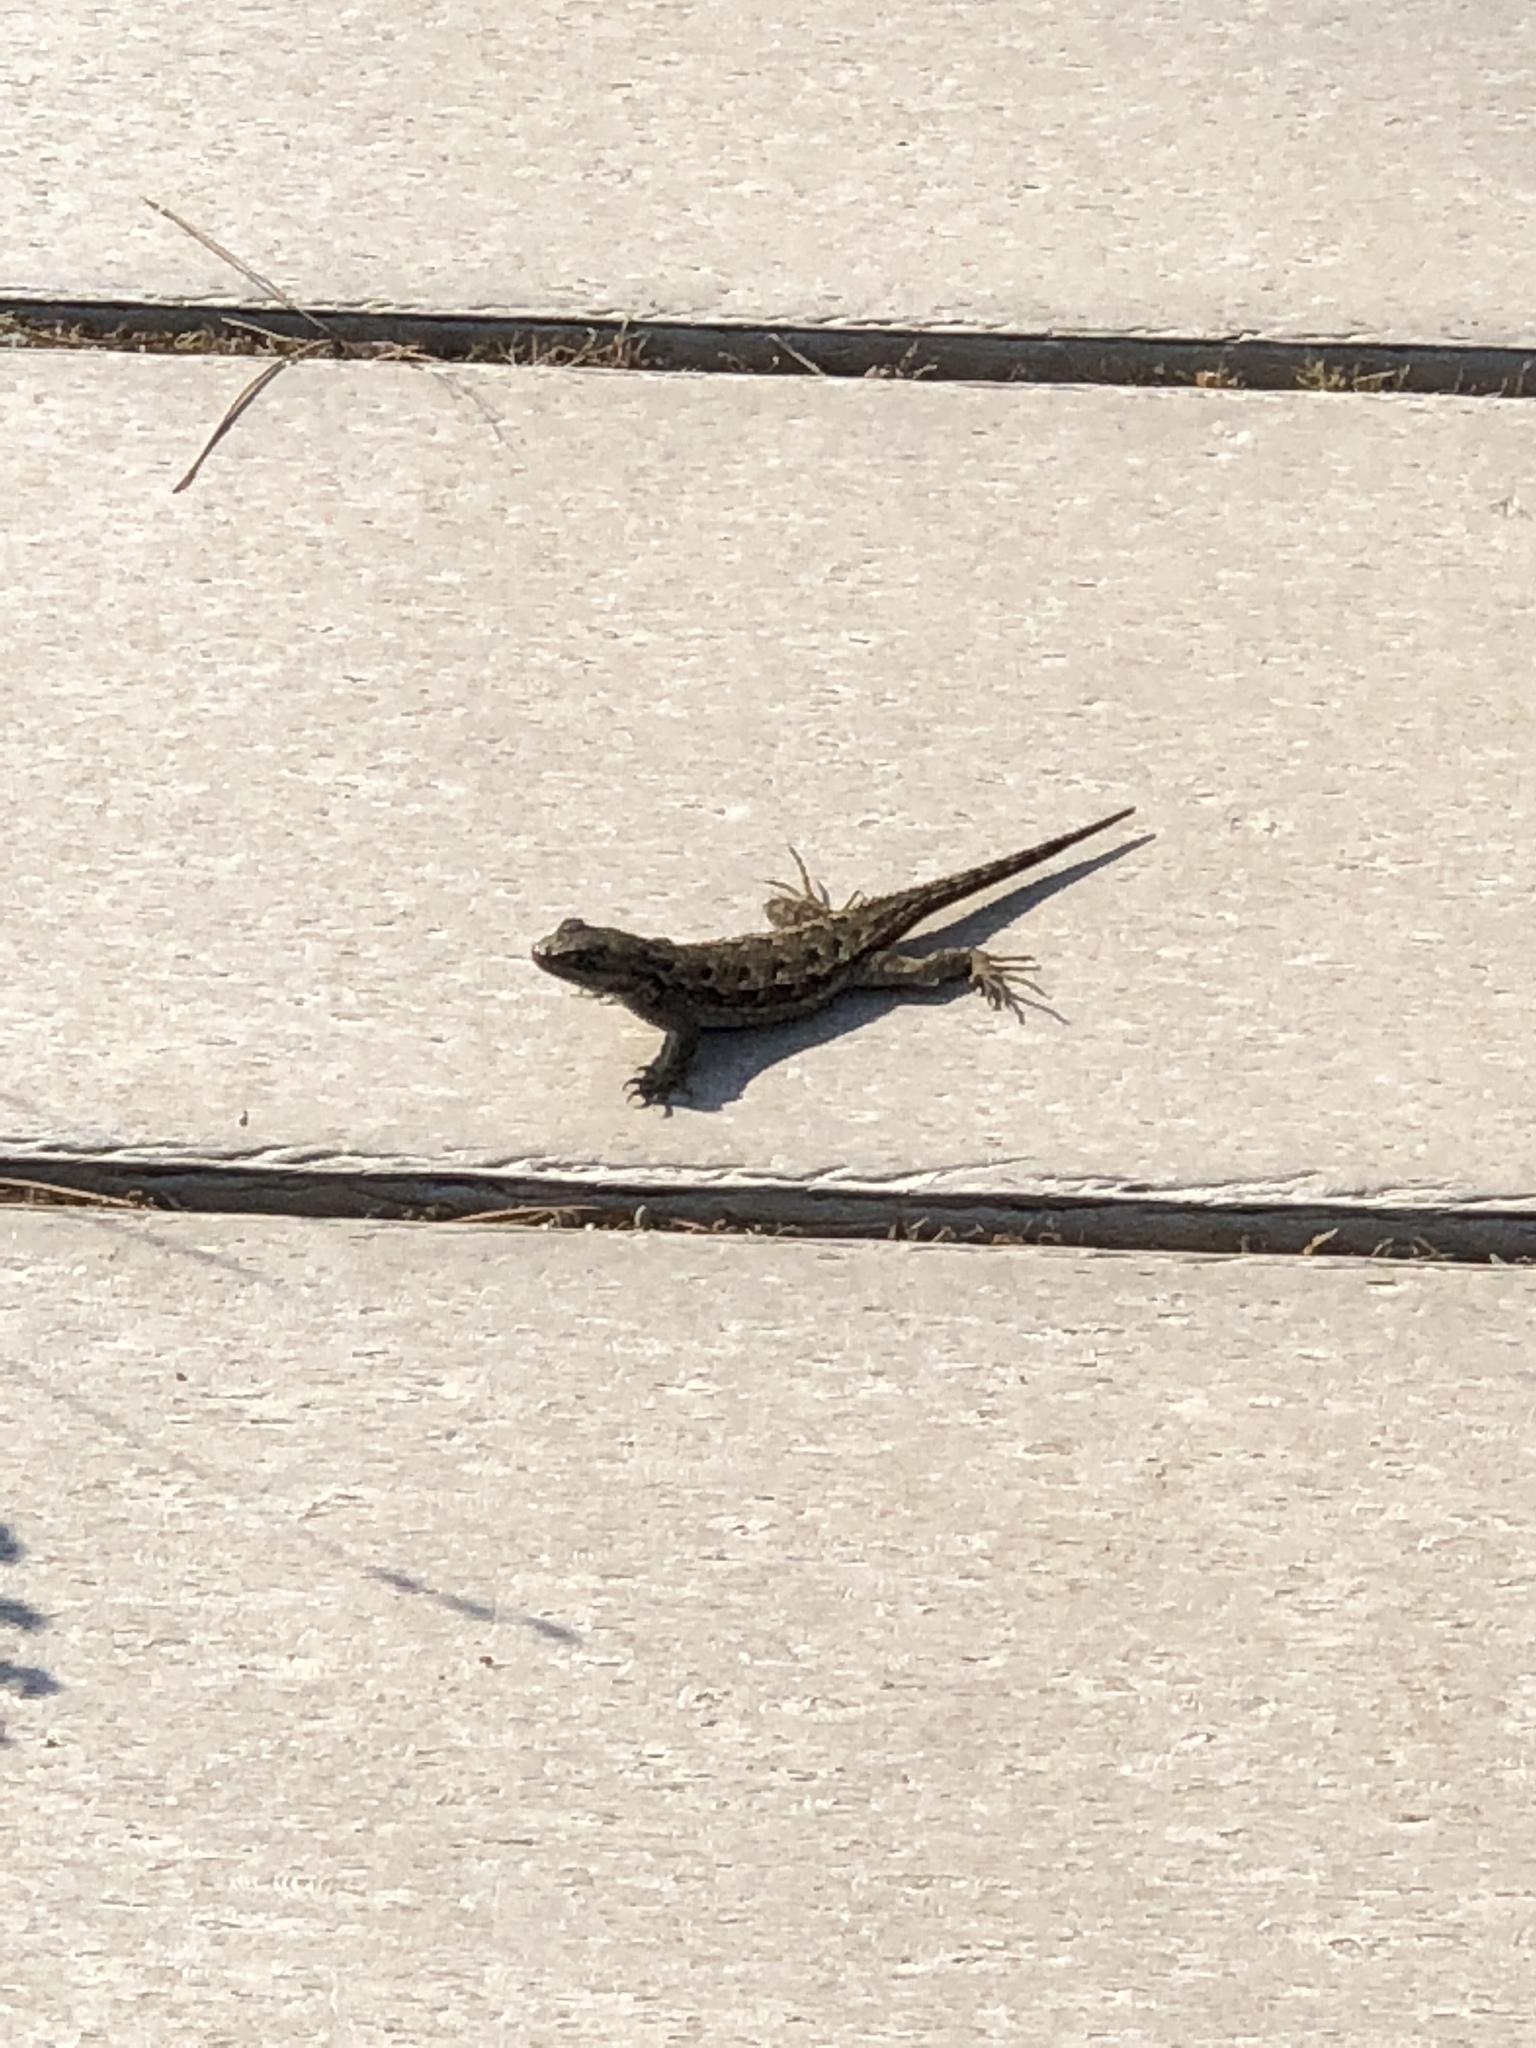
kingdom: Animalia
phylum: Chordata
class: Squamata
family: Phrynosomatidae
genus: Sceloporus
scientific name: Sceloporus occidentalis
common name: Western fence lizard
